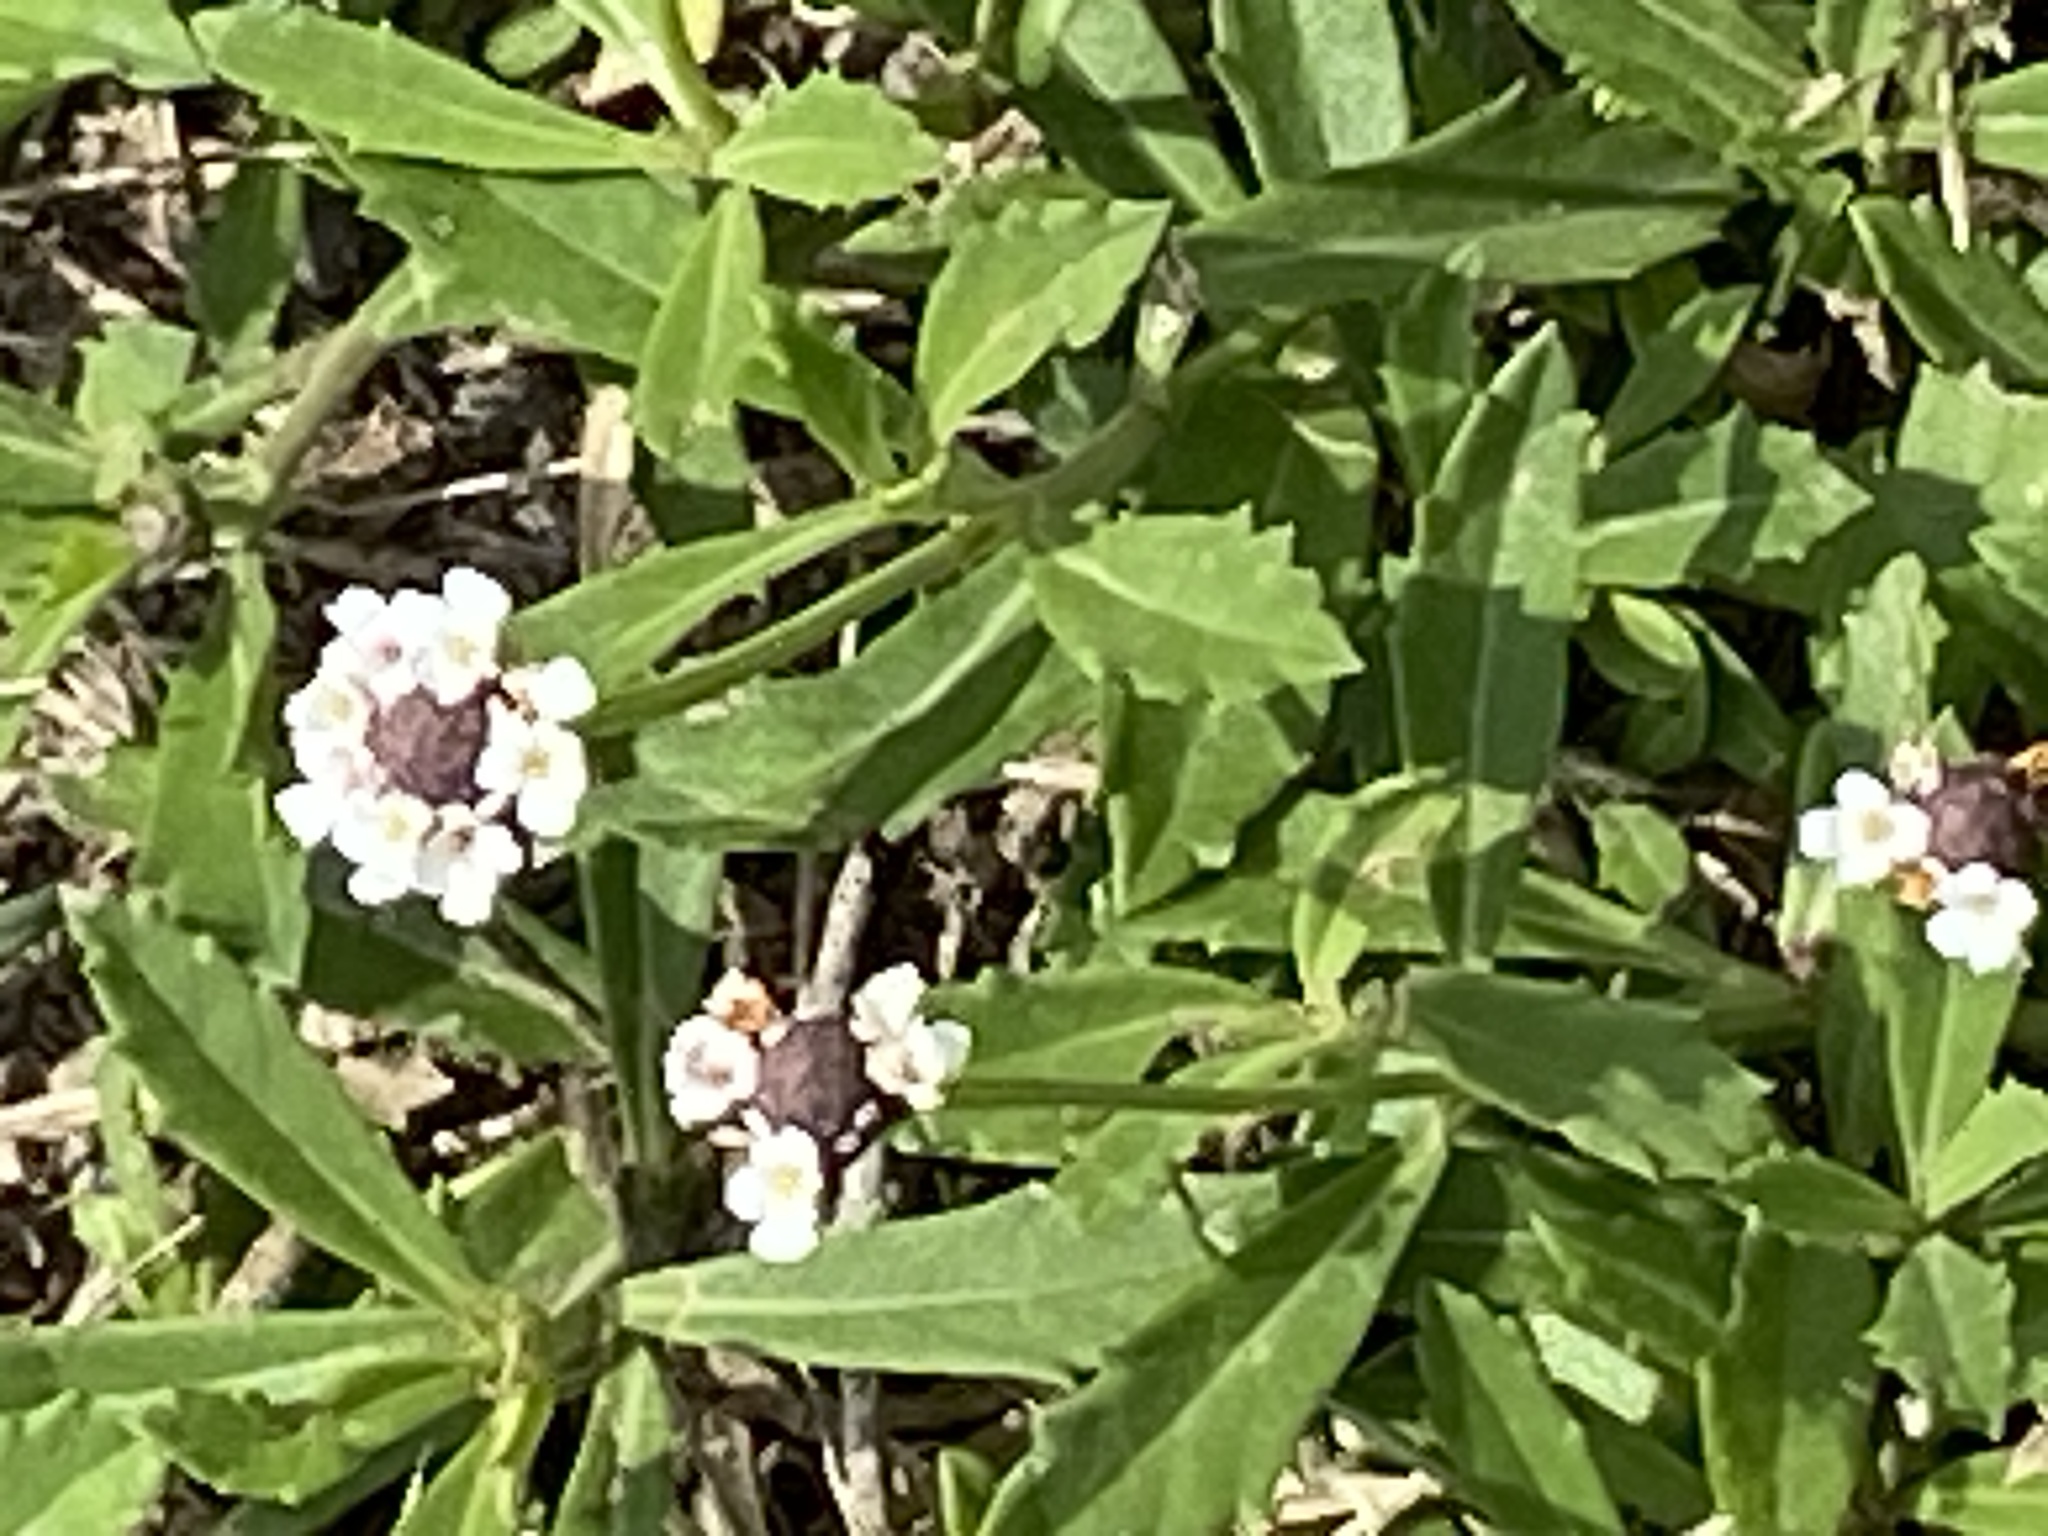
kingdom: Plantae
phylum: Tracheophyta
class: Magnoliopsida
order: Lamiales
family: Verbenaceae
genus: Phyla
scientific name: Phyla nodiflora
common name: Frogfruit
